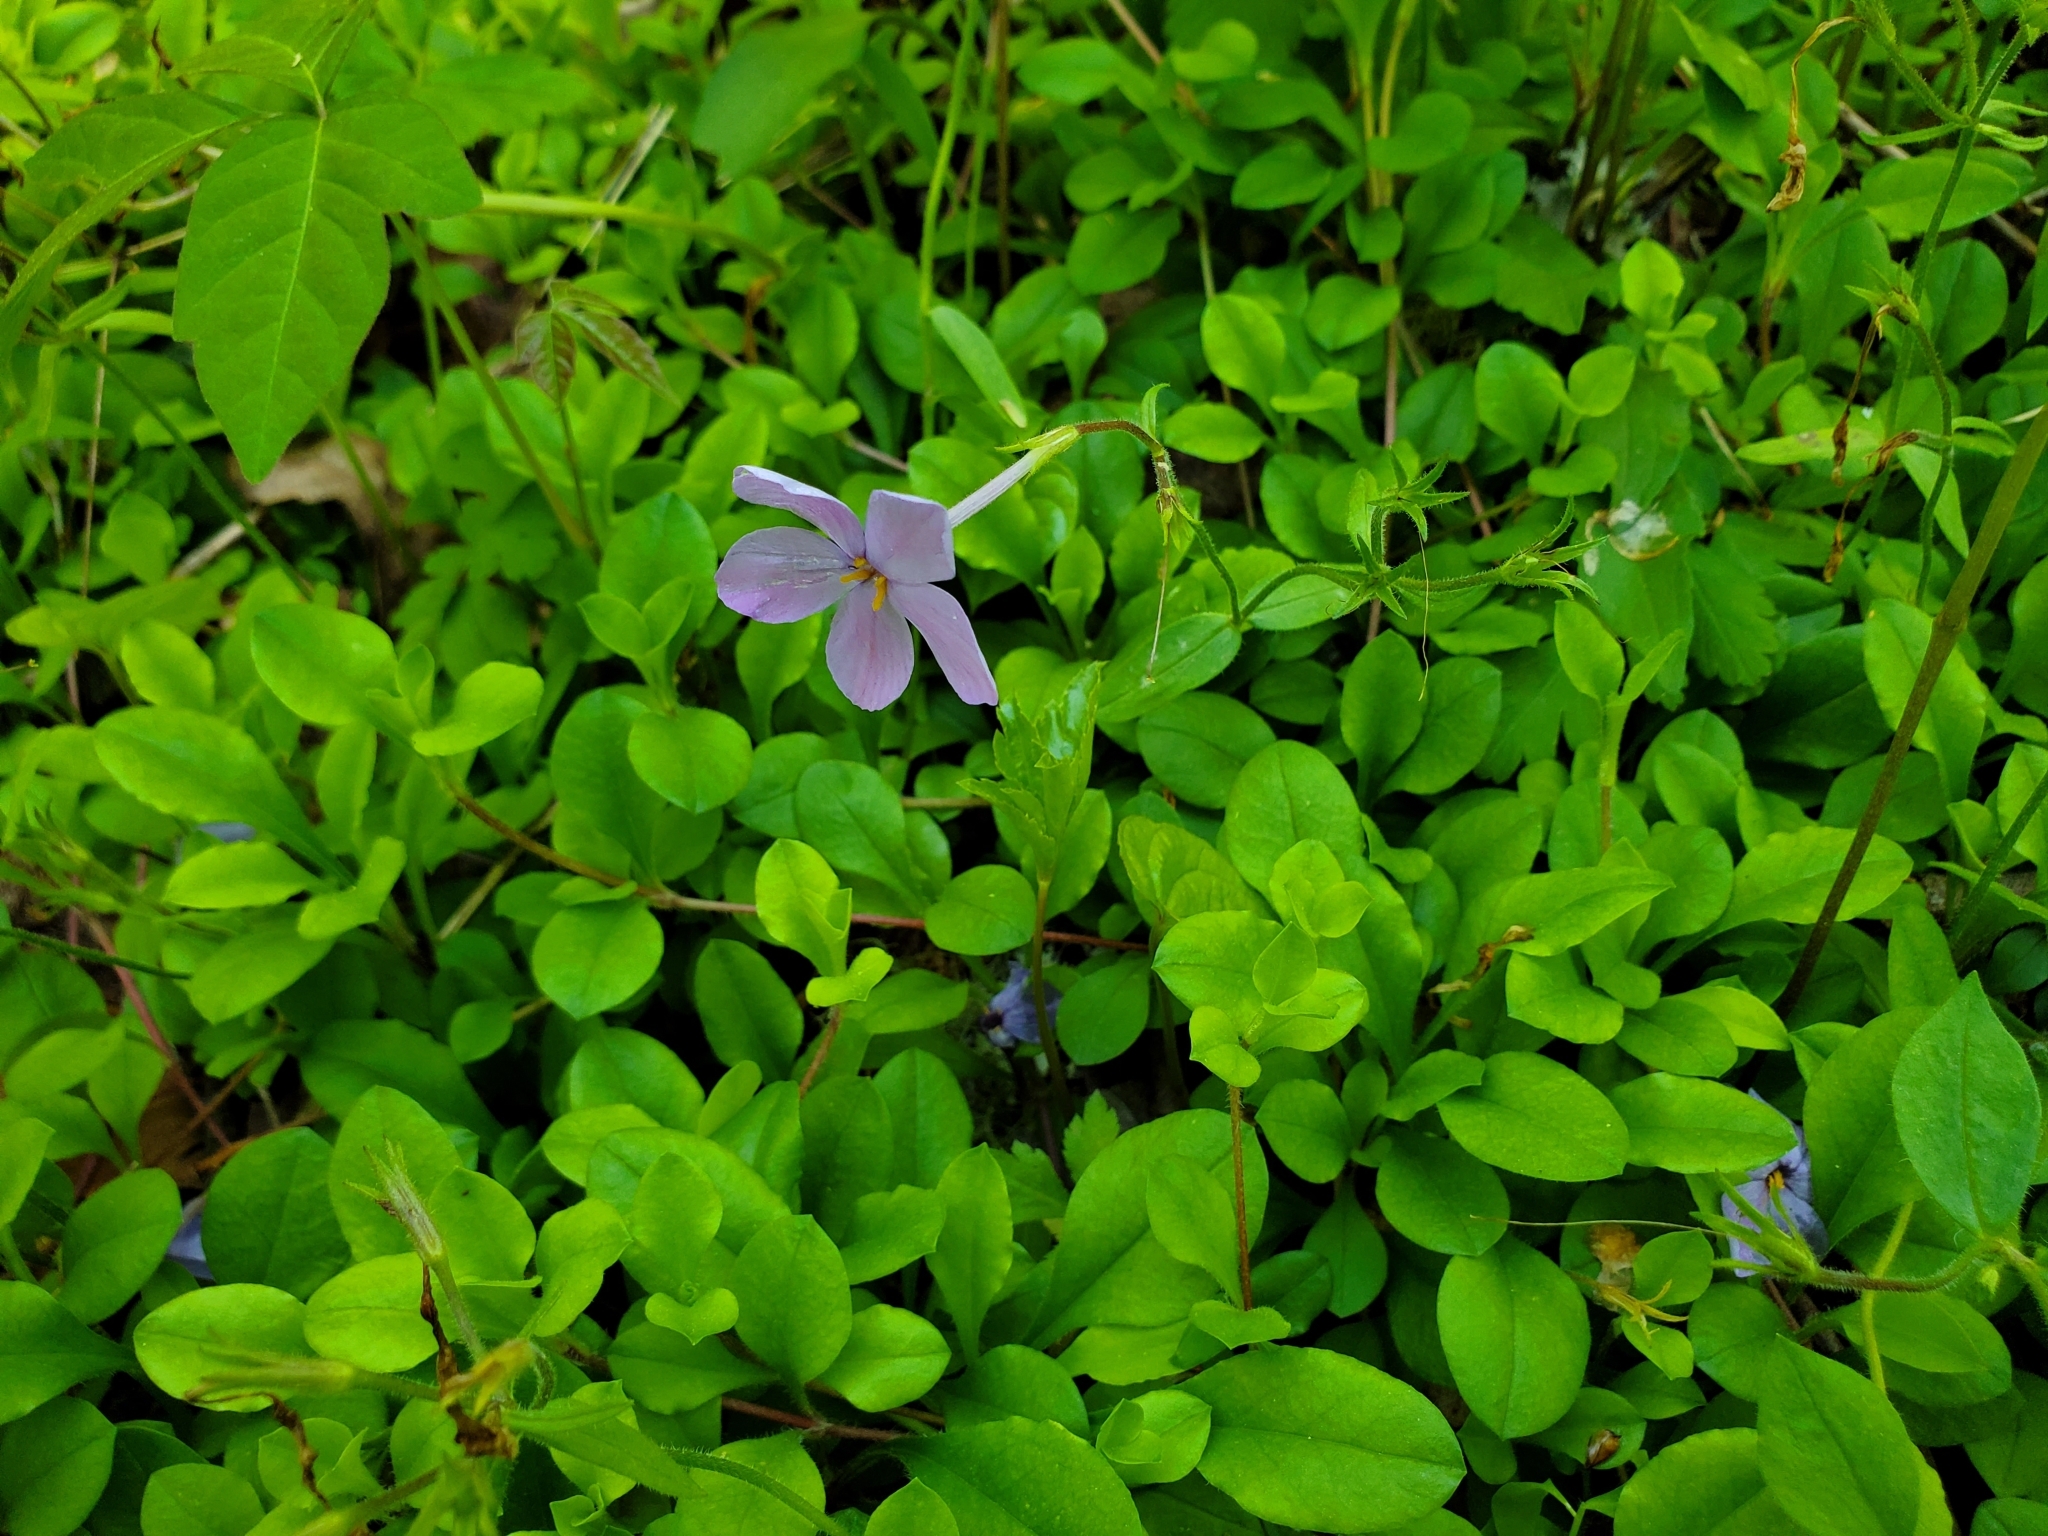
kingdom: Plantae
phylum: Tracheophyta
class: Magnoliopsida
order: Ericales
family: Polemoniaceae
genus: Phlox
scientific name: Phlox stolonifera
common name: Creeping phlox
